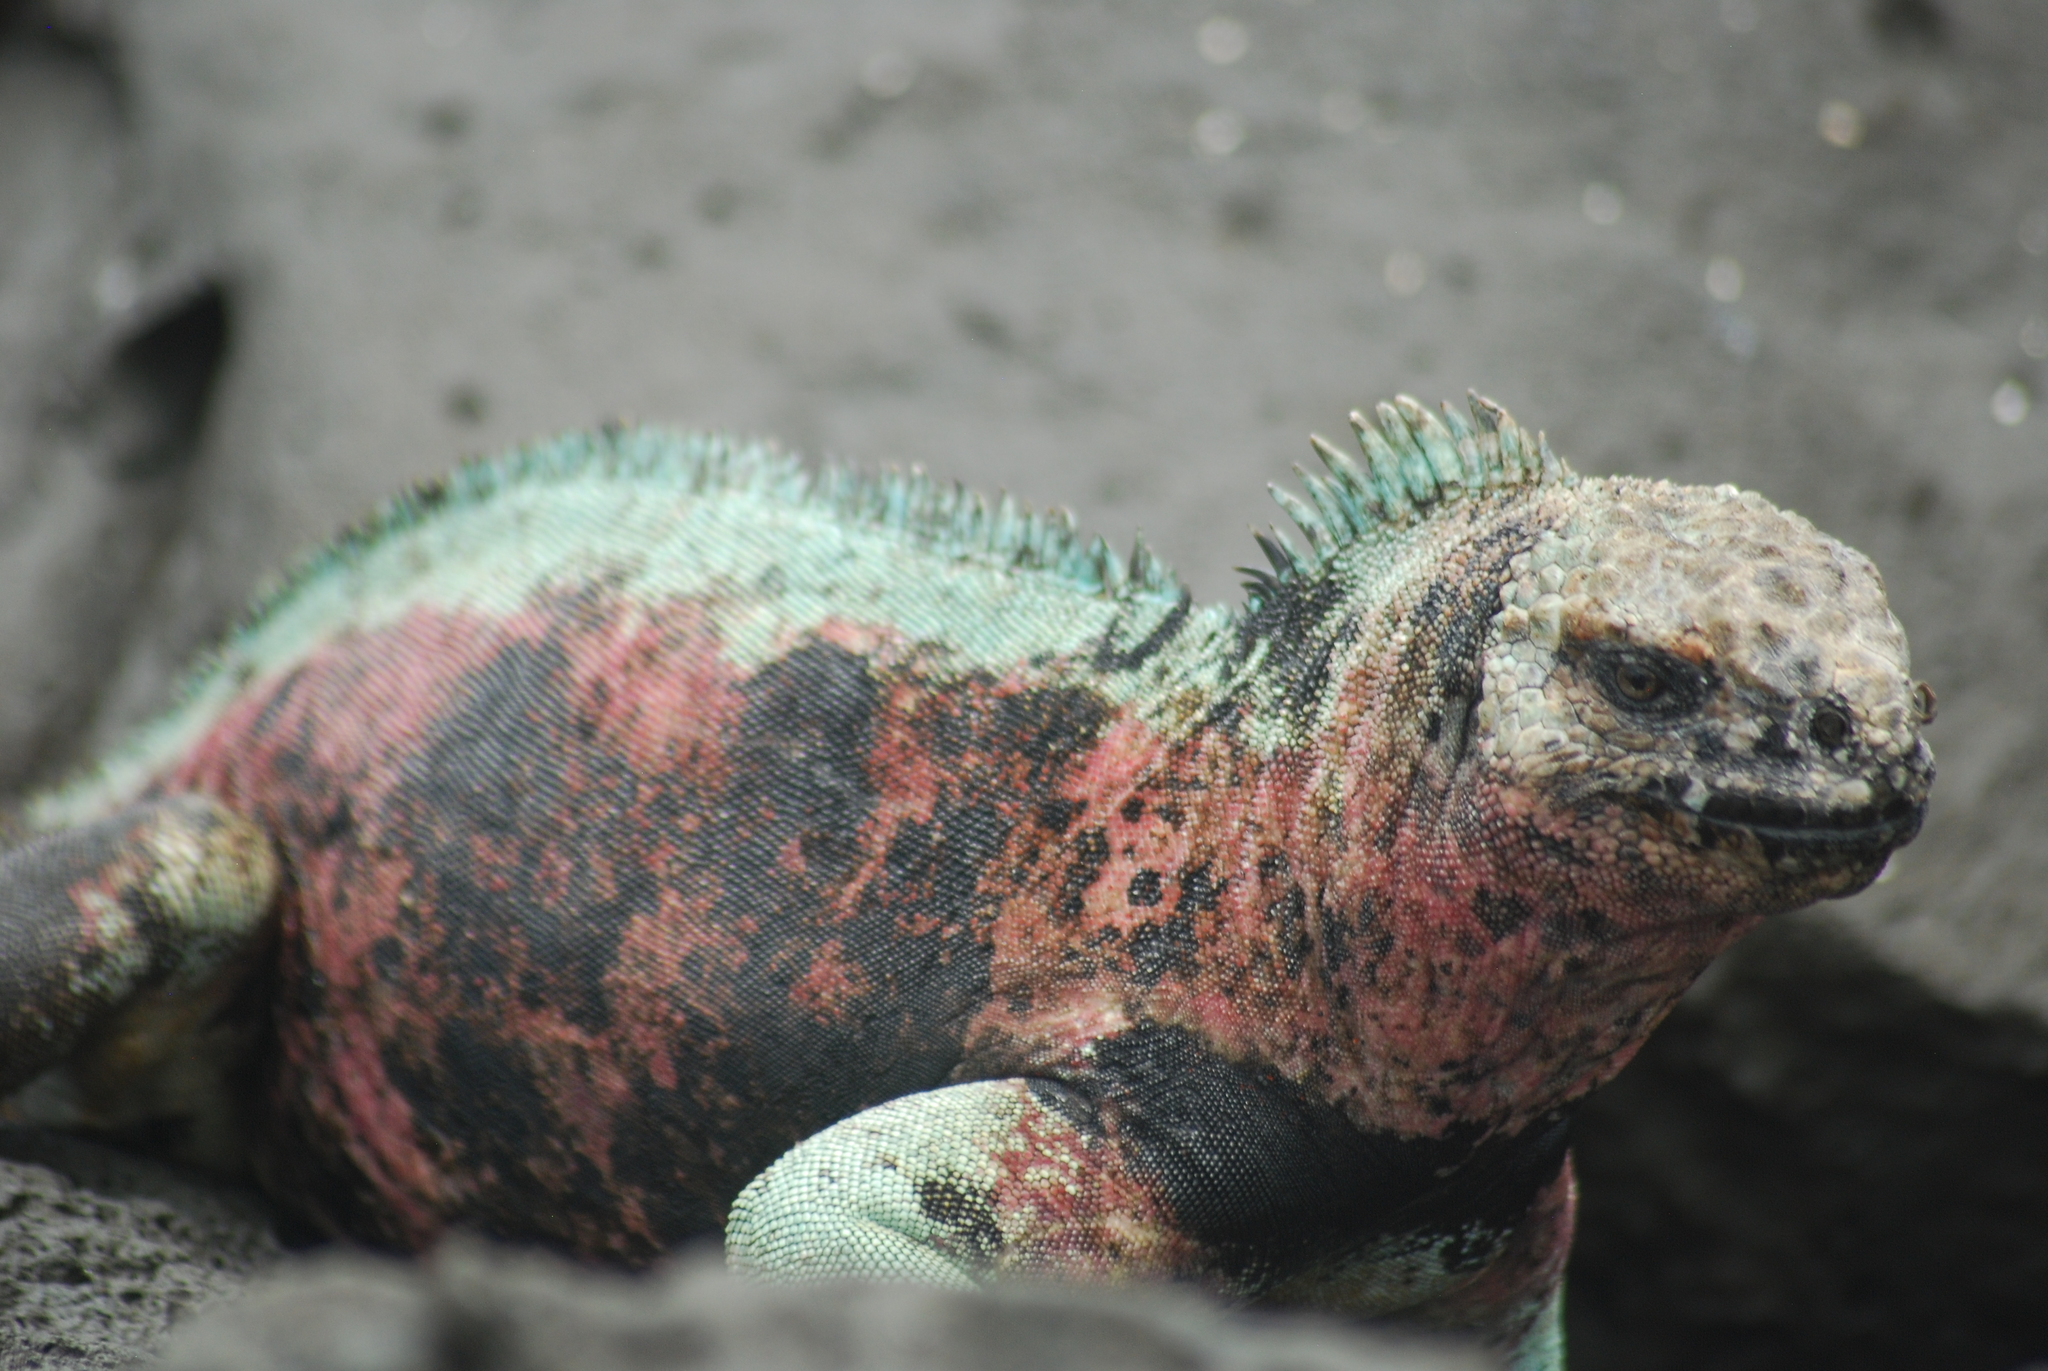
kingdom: Animalia
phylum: Chordata
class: Squamata
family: Iguanidae
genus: Amblyrhynchus
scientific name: Amblyrhynchus cristatus
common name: Marine iguana
